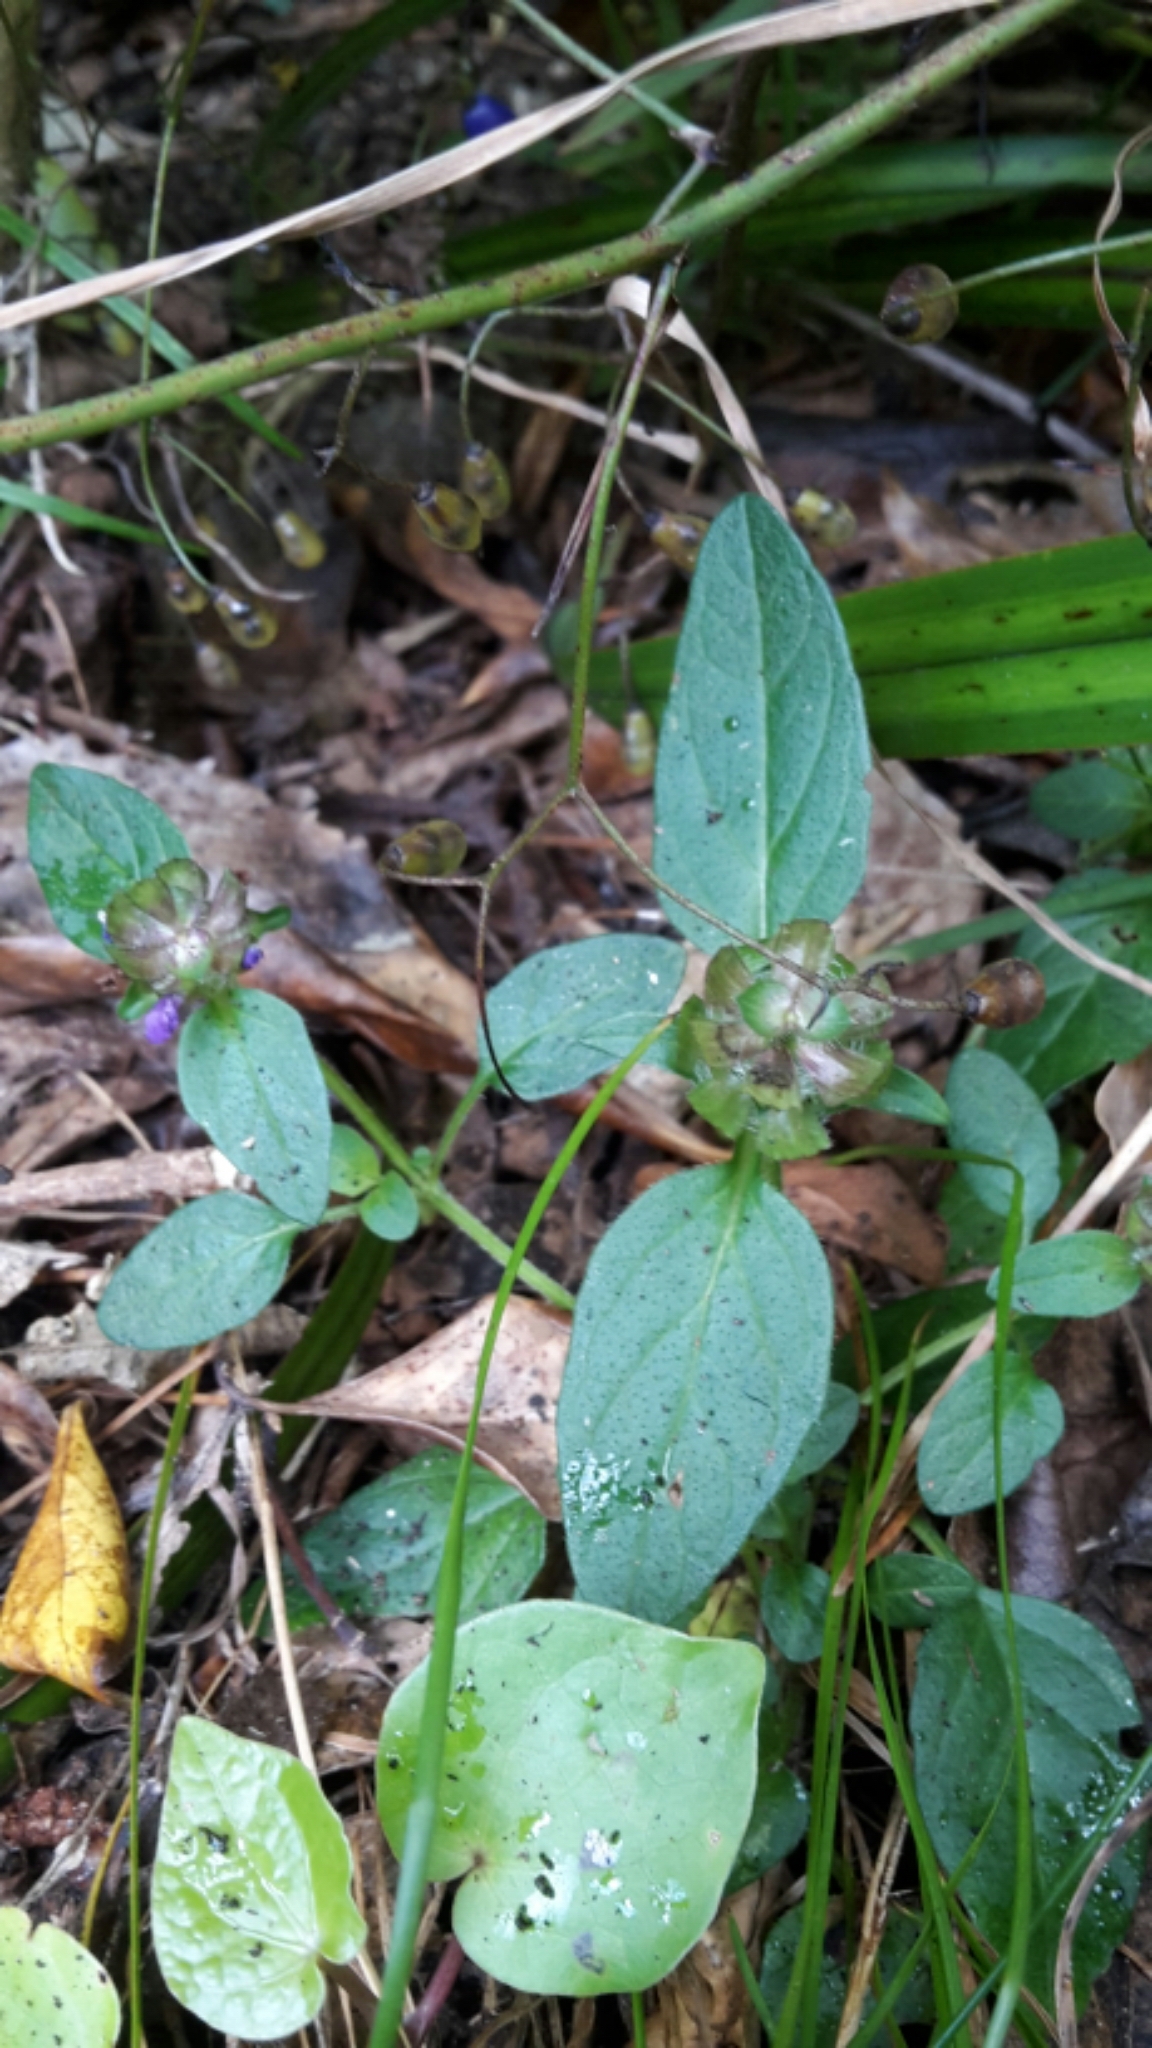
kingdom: Plantae
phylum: Tracheophyta
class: Magnoliopsida
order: Lamiales
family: Lamiaceae
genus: Prunella
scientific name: Prunella vulgaris
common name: Heal-all
